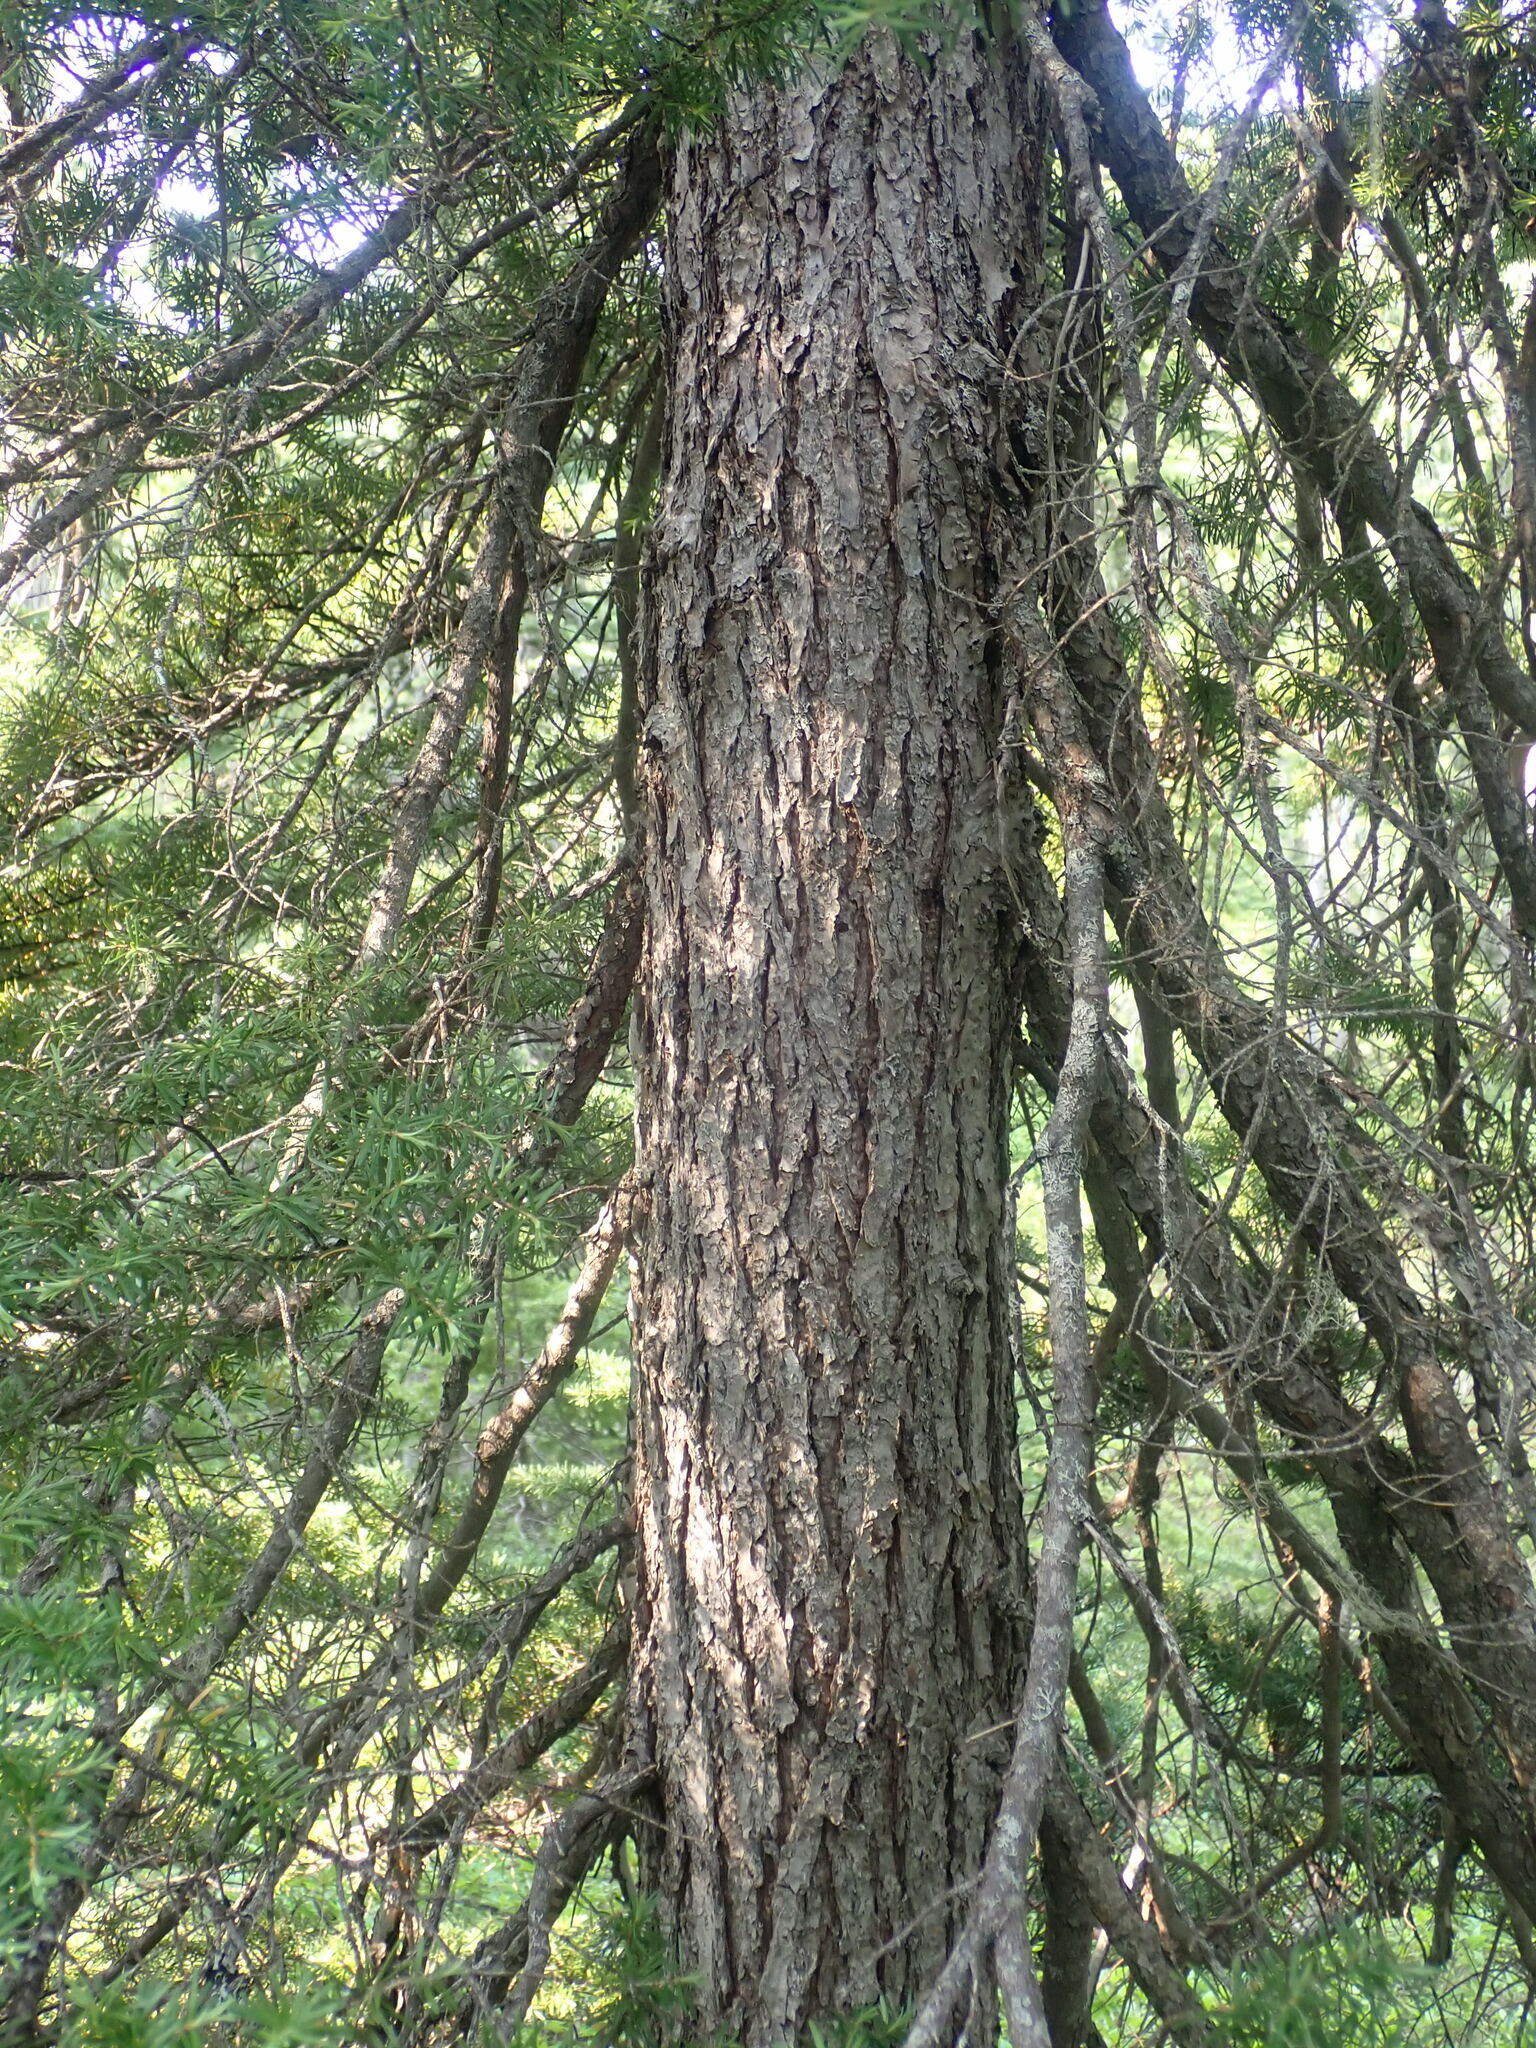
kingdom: Plantae
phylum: Tracheophyta
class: Pinopsida
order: Pinales
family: Pinaceae
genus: Tsuga
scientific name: Tsuga mertensiana
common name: Mountain hemlock
